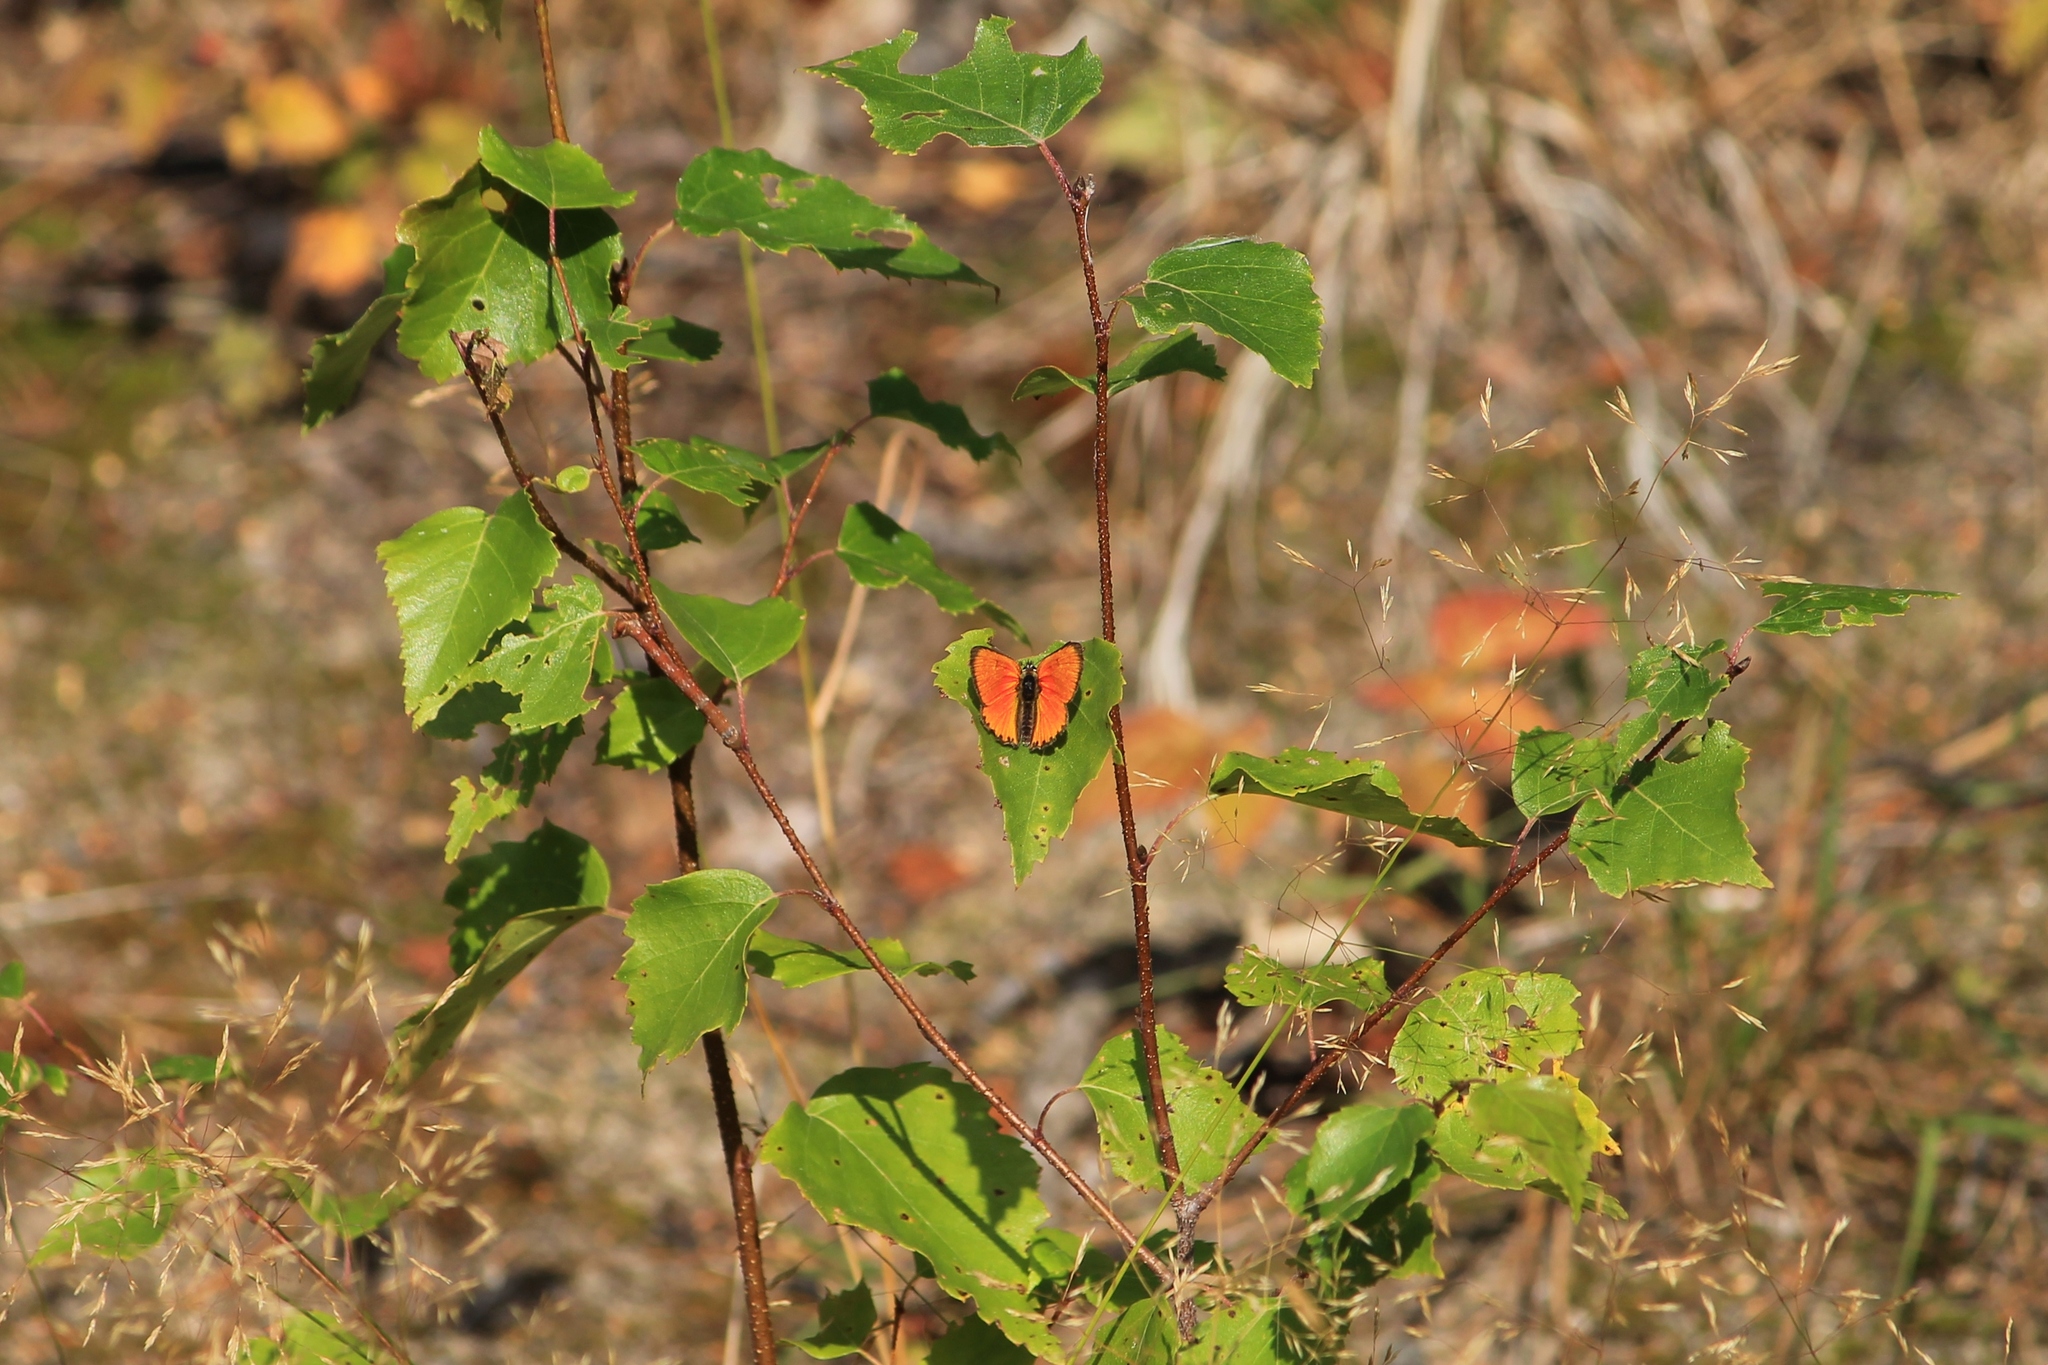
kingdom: Animalia
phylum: Arthropoda
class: Insecta
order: Lepidoptera
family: Lycaenidae
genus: Lycaena
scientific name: Lycaena virgaureae
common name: Scarce copper
